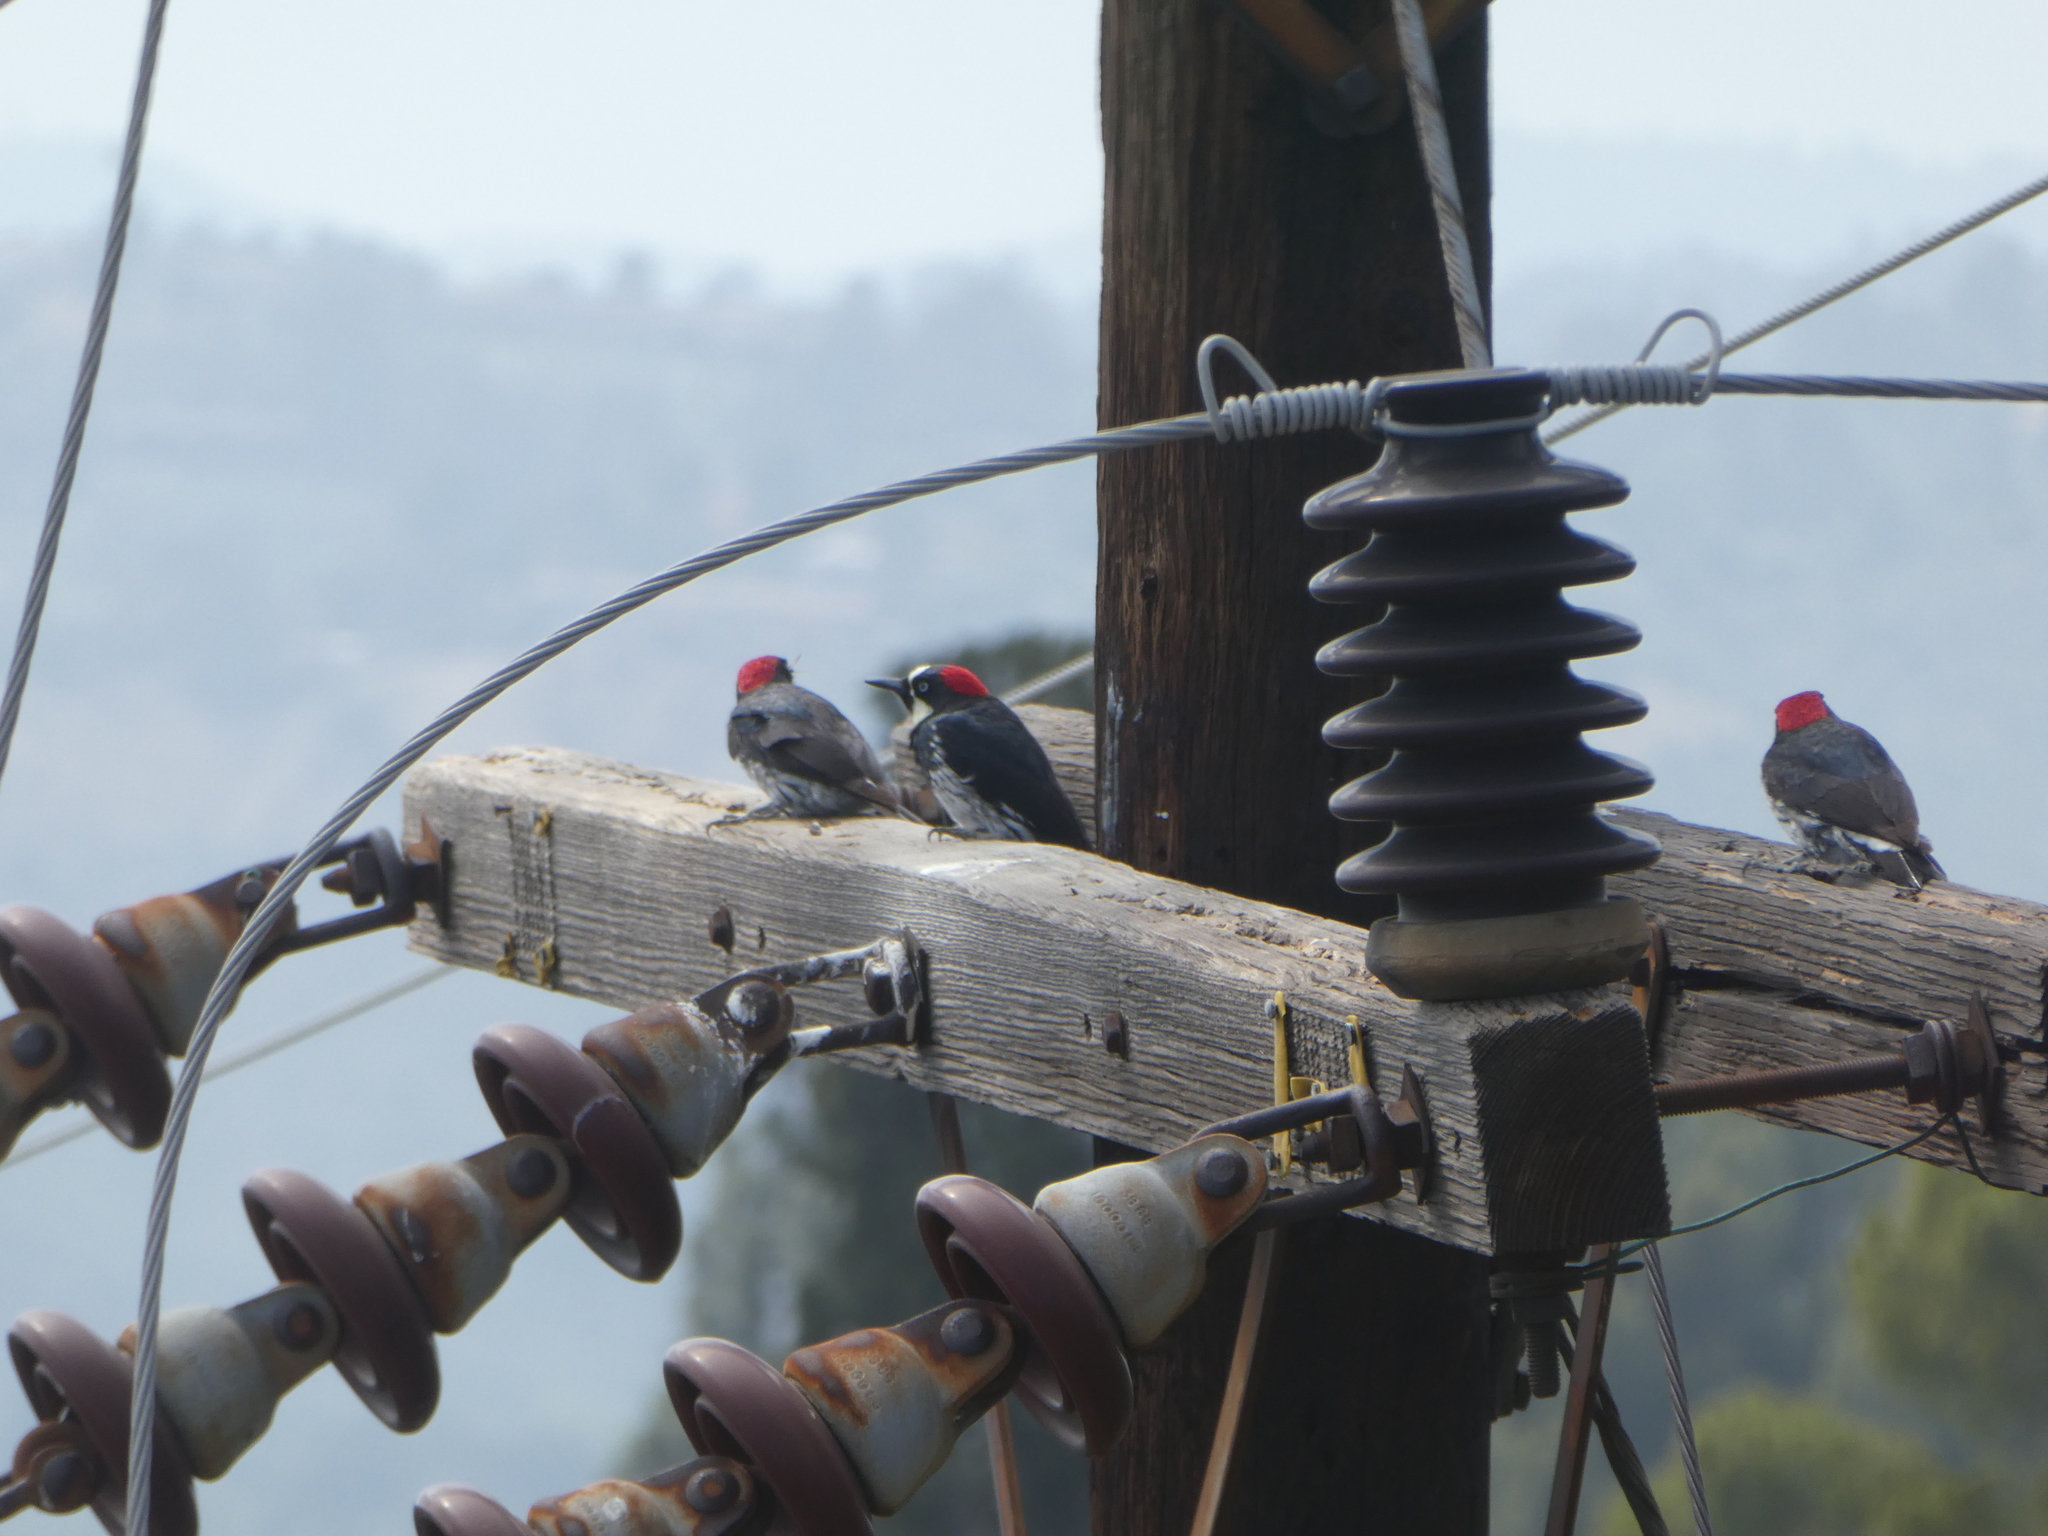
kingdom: Animalia
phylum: Chordata
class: Aves
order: Piciformes
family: Picidae
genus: Melanerpes
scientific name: Melanerpes formicivorus
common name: Acorn woodpecker
